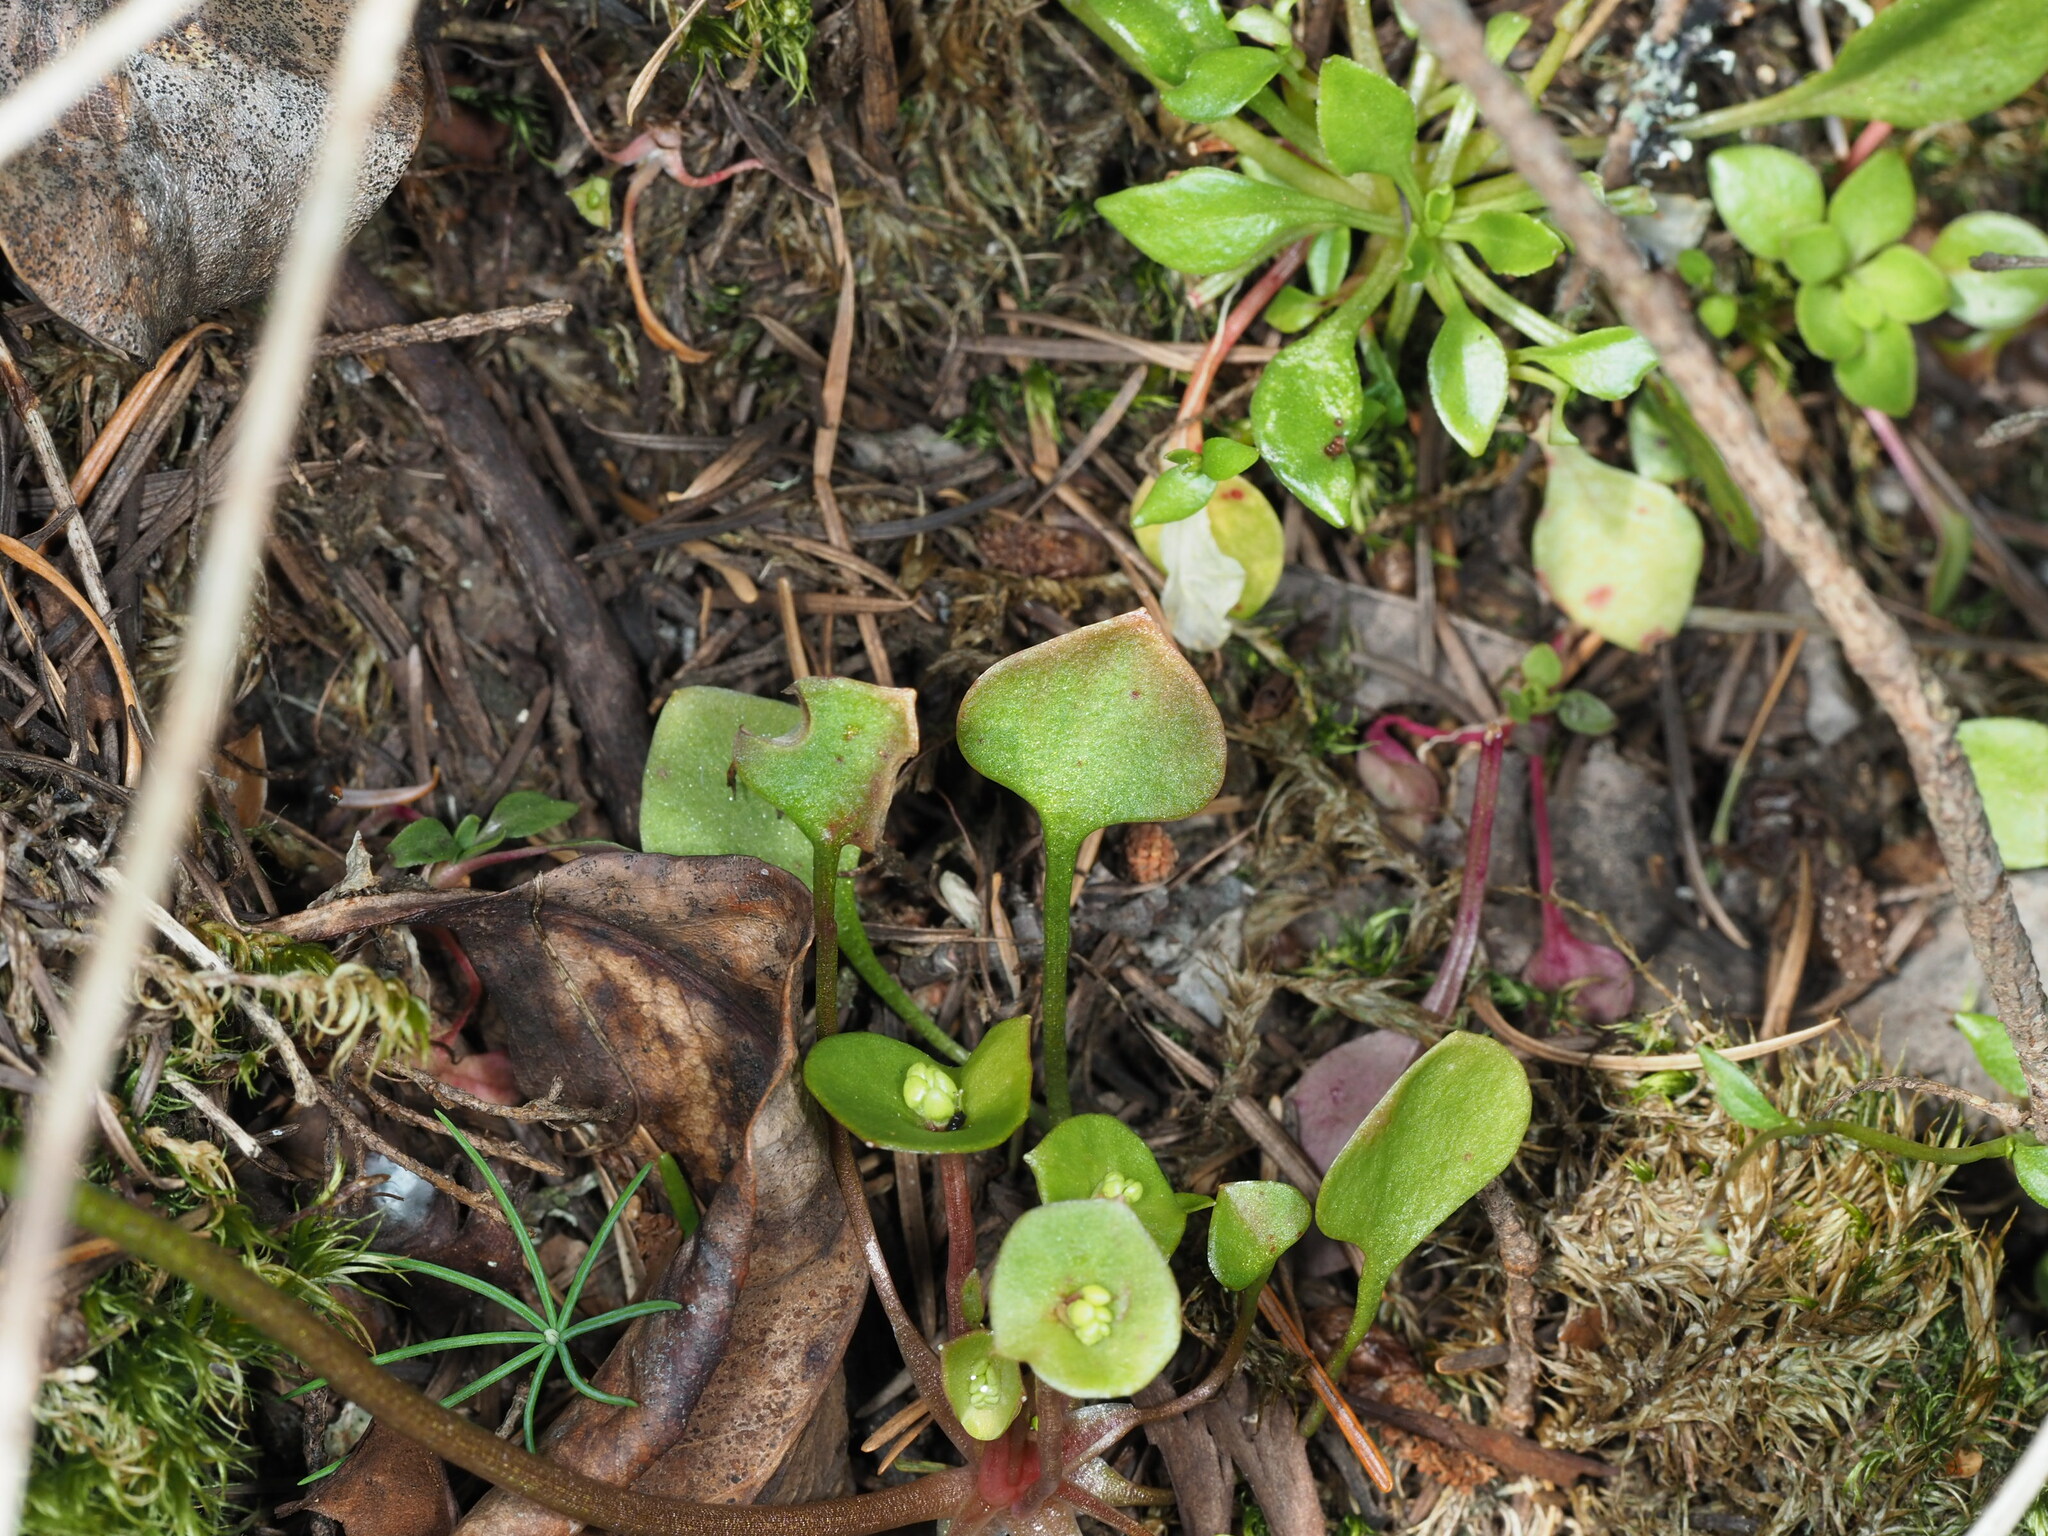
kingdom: Plantae
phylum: Tracheophyta
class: Magnoliopsida
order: Caryophyllales
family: Montiaceae
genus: Claytonia
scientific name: Claytonia perfoliata
